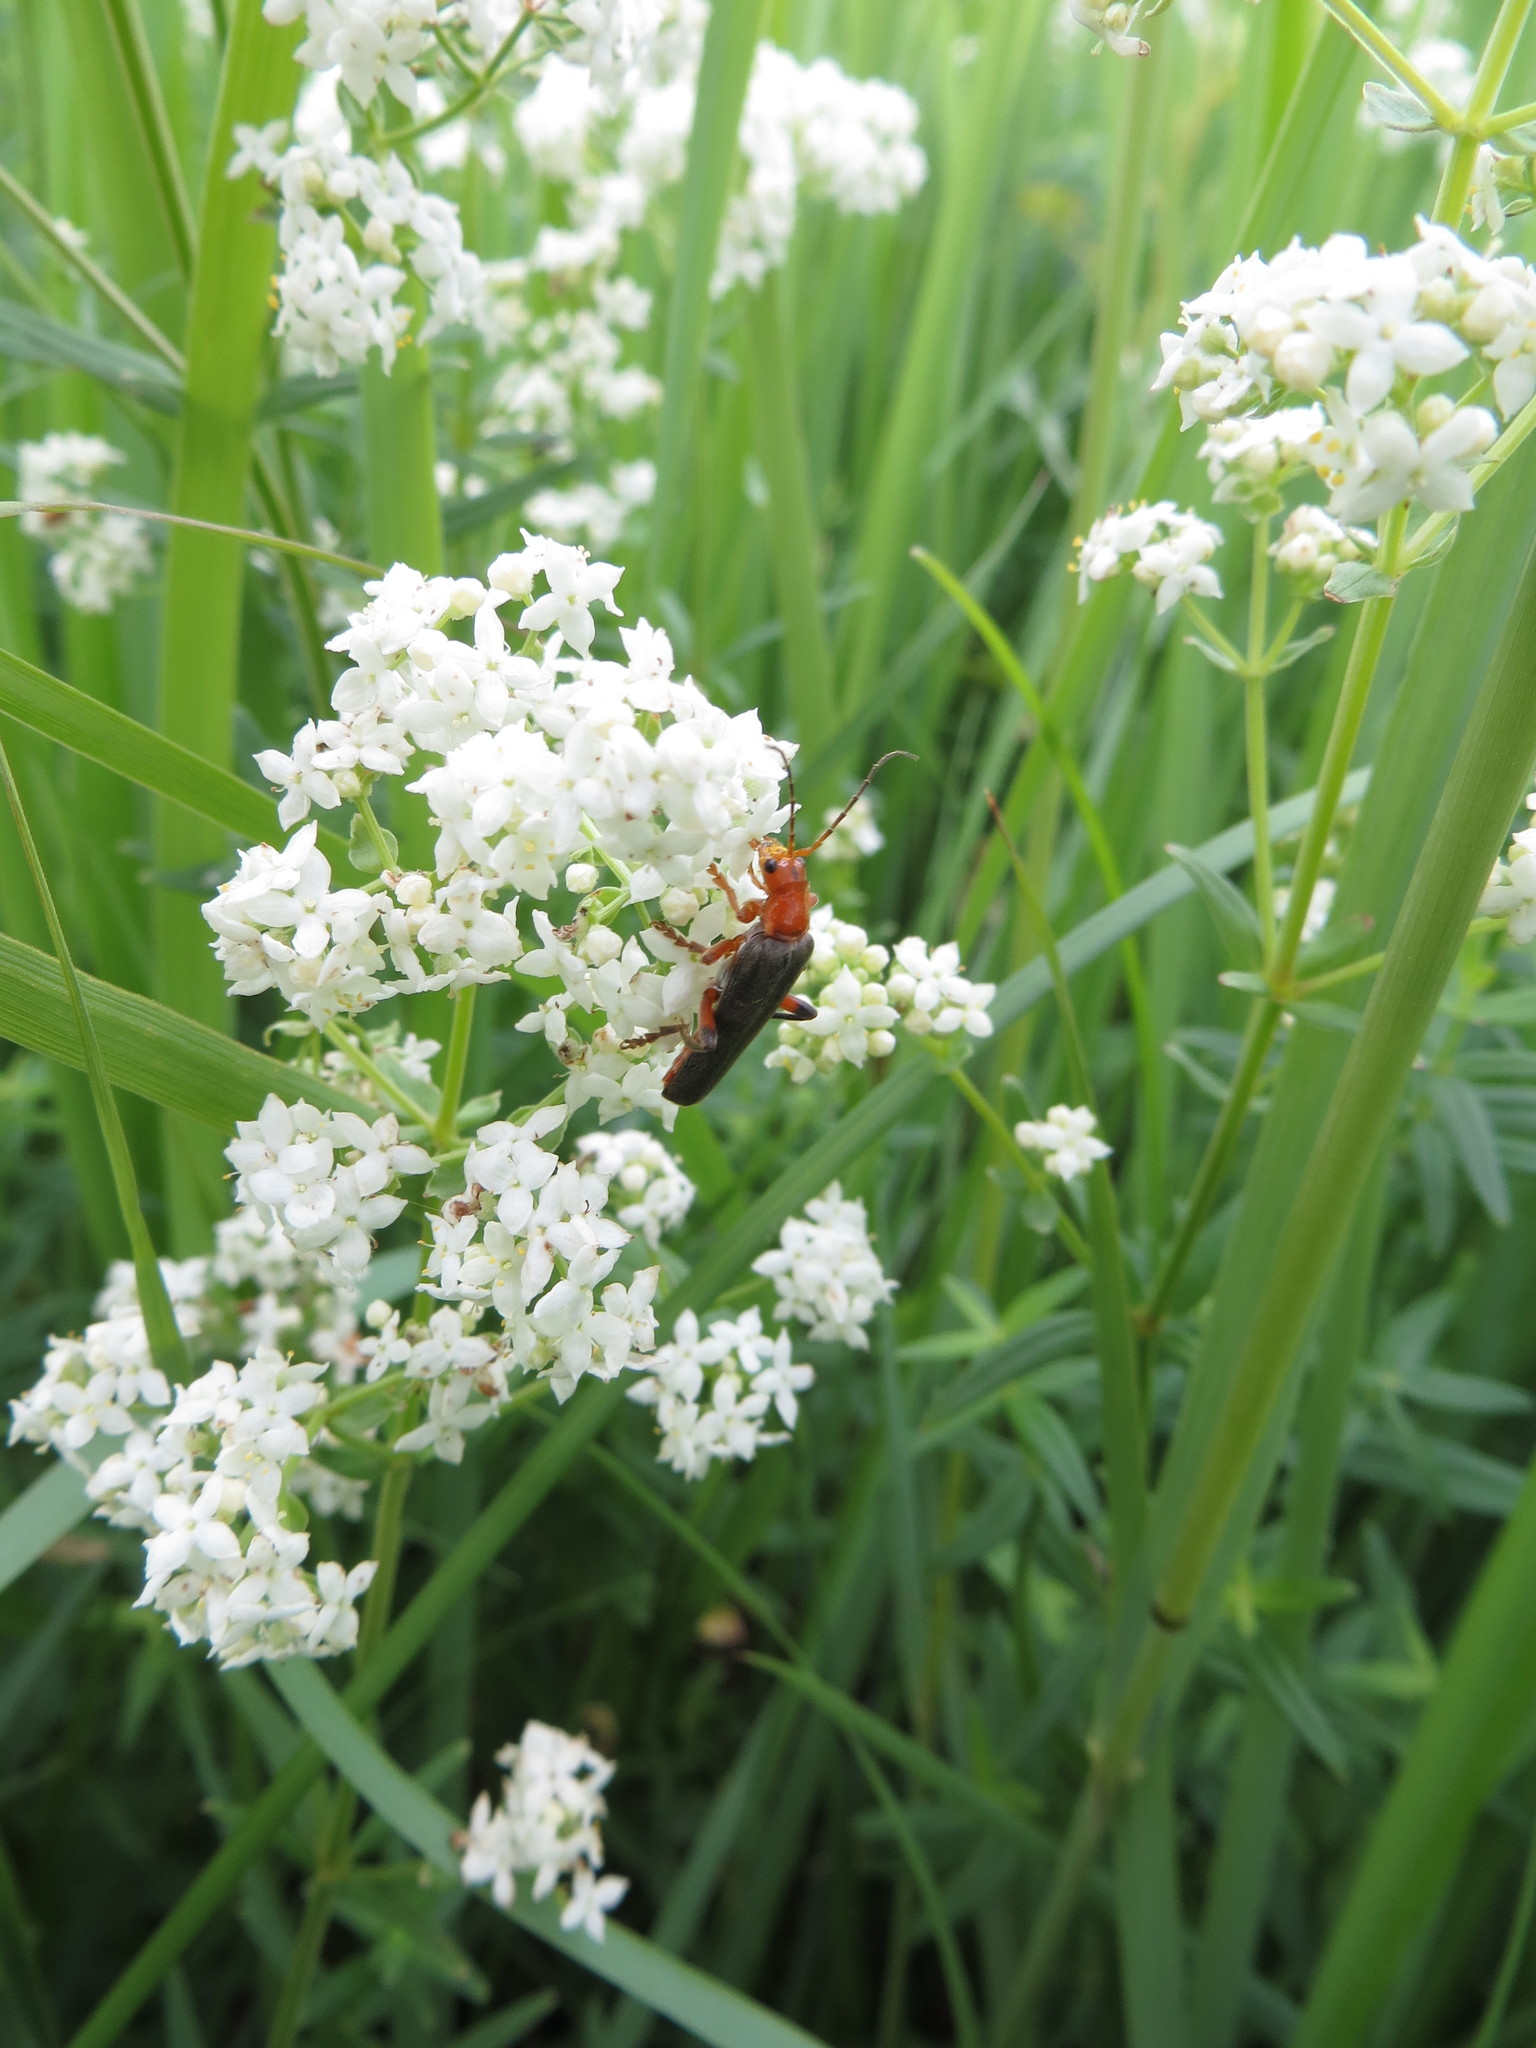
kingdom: Animalia
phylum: Arthropoda
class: Insecta
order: Coleoptera
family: Cantharidae
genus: Cantharis
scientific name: Cantharis livida
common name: Livid soldier beetle
